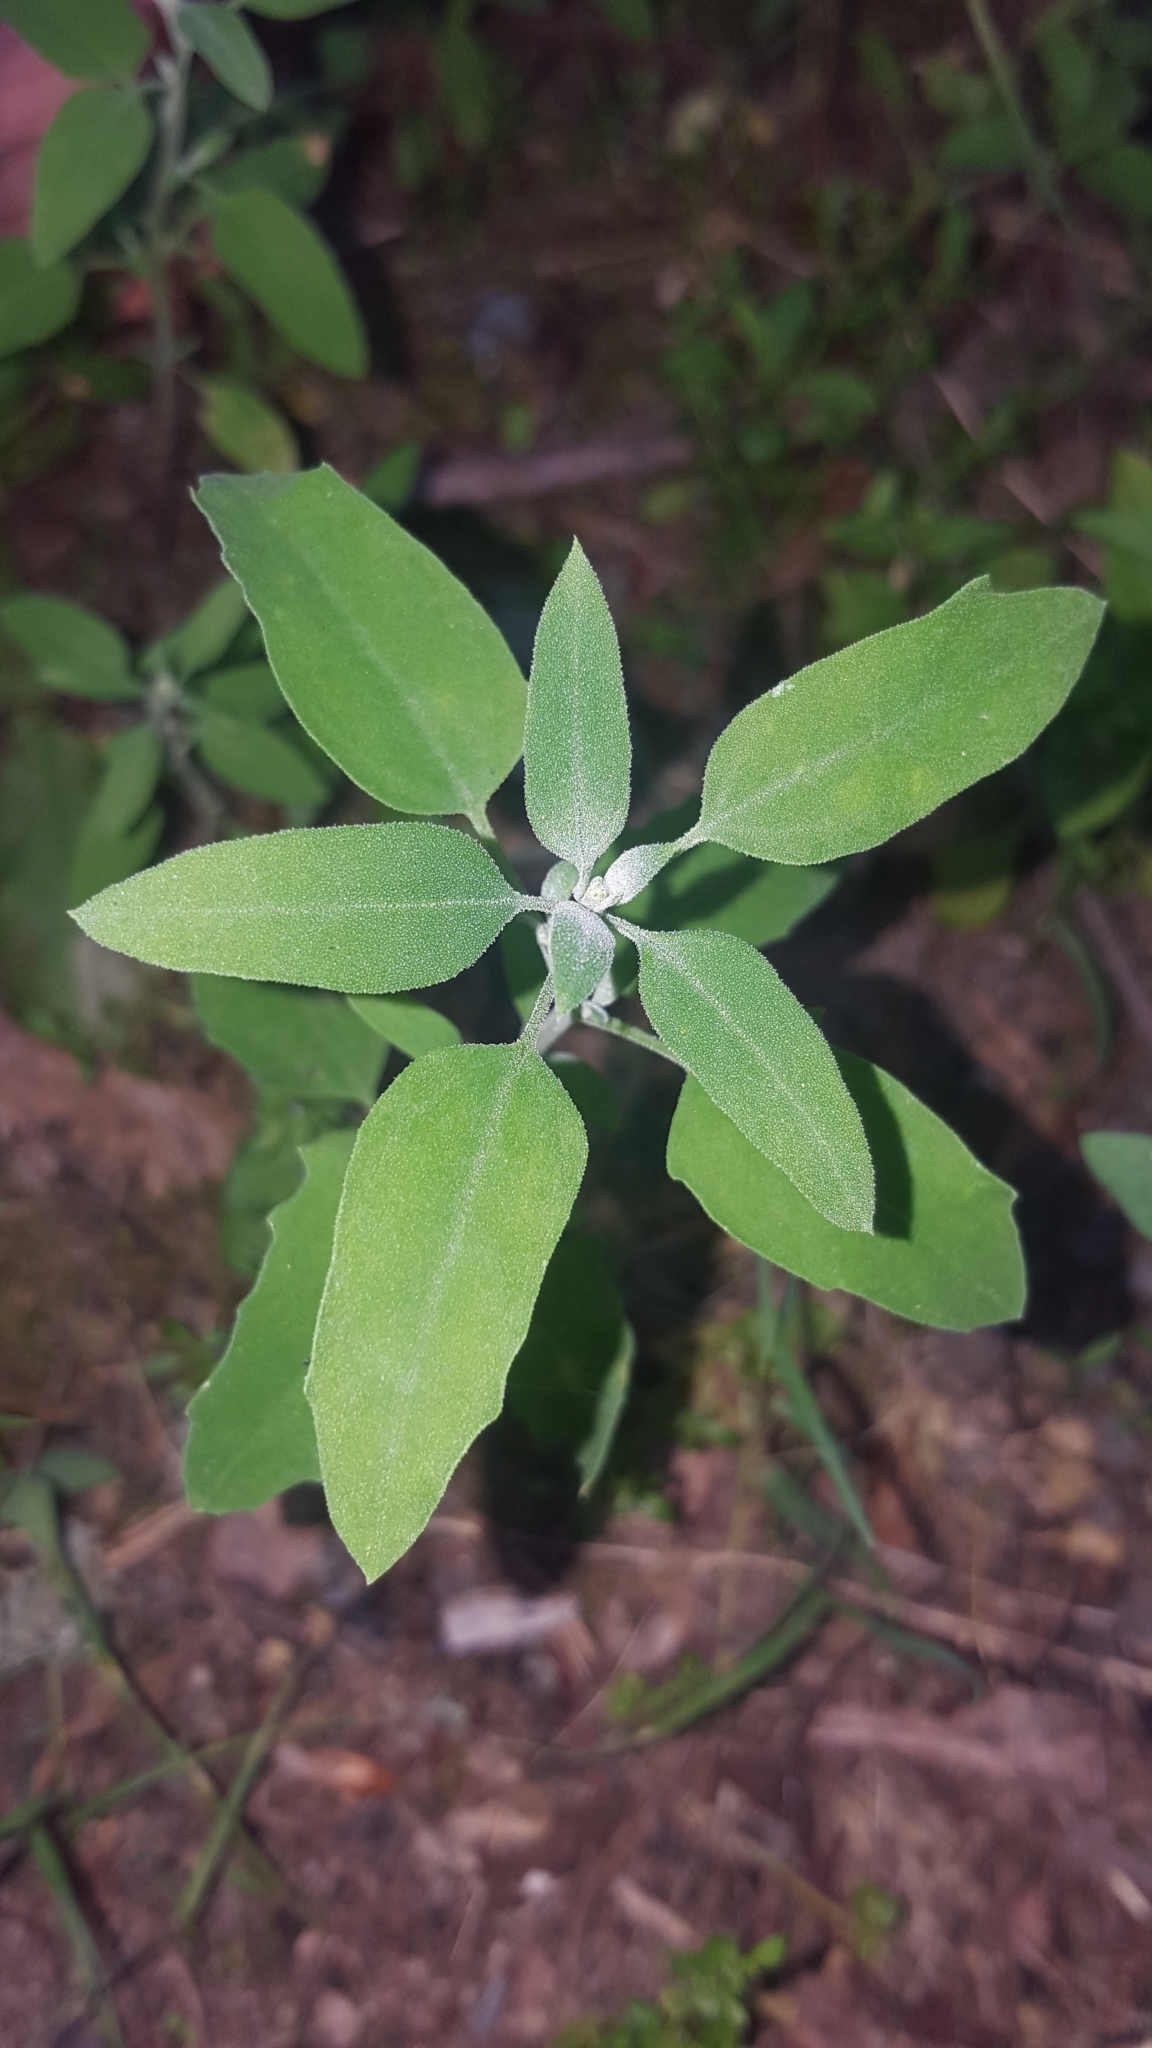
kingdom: Plantae
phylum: Tracheophyta
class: Magnoliopsida
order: Caryophyllales
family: Amaranthaceae
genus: Chenopodium
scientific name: Chenopodium album
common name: Fat-hen
